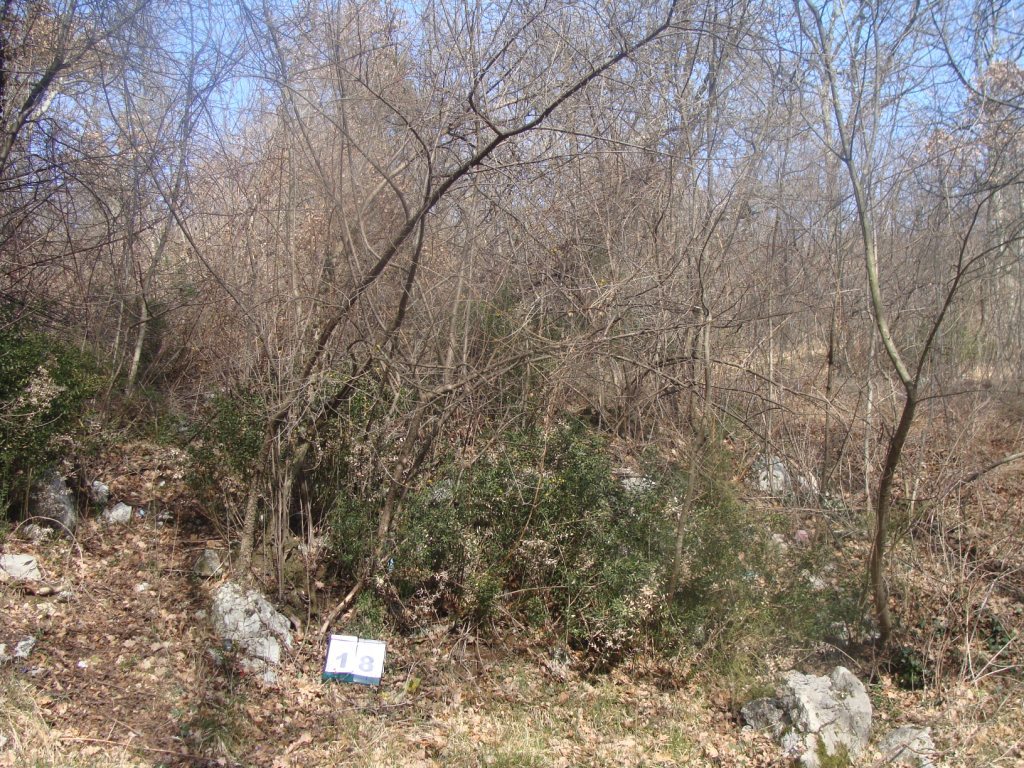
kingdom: Plantae
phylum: Tracheophyta
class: Magnoliopsida
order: Cornales
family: Cornaceae
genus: Cornus
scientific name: Cornus mas
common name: Cornelian-cherry
